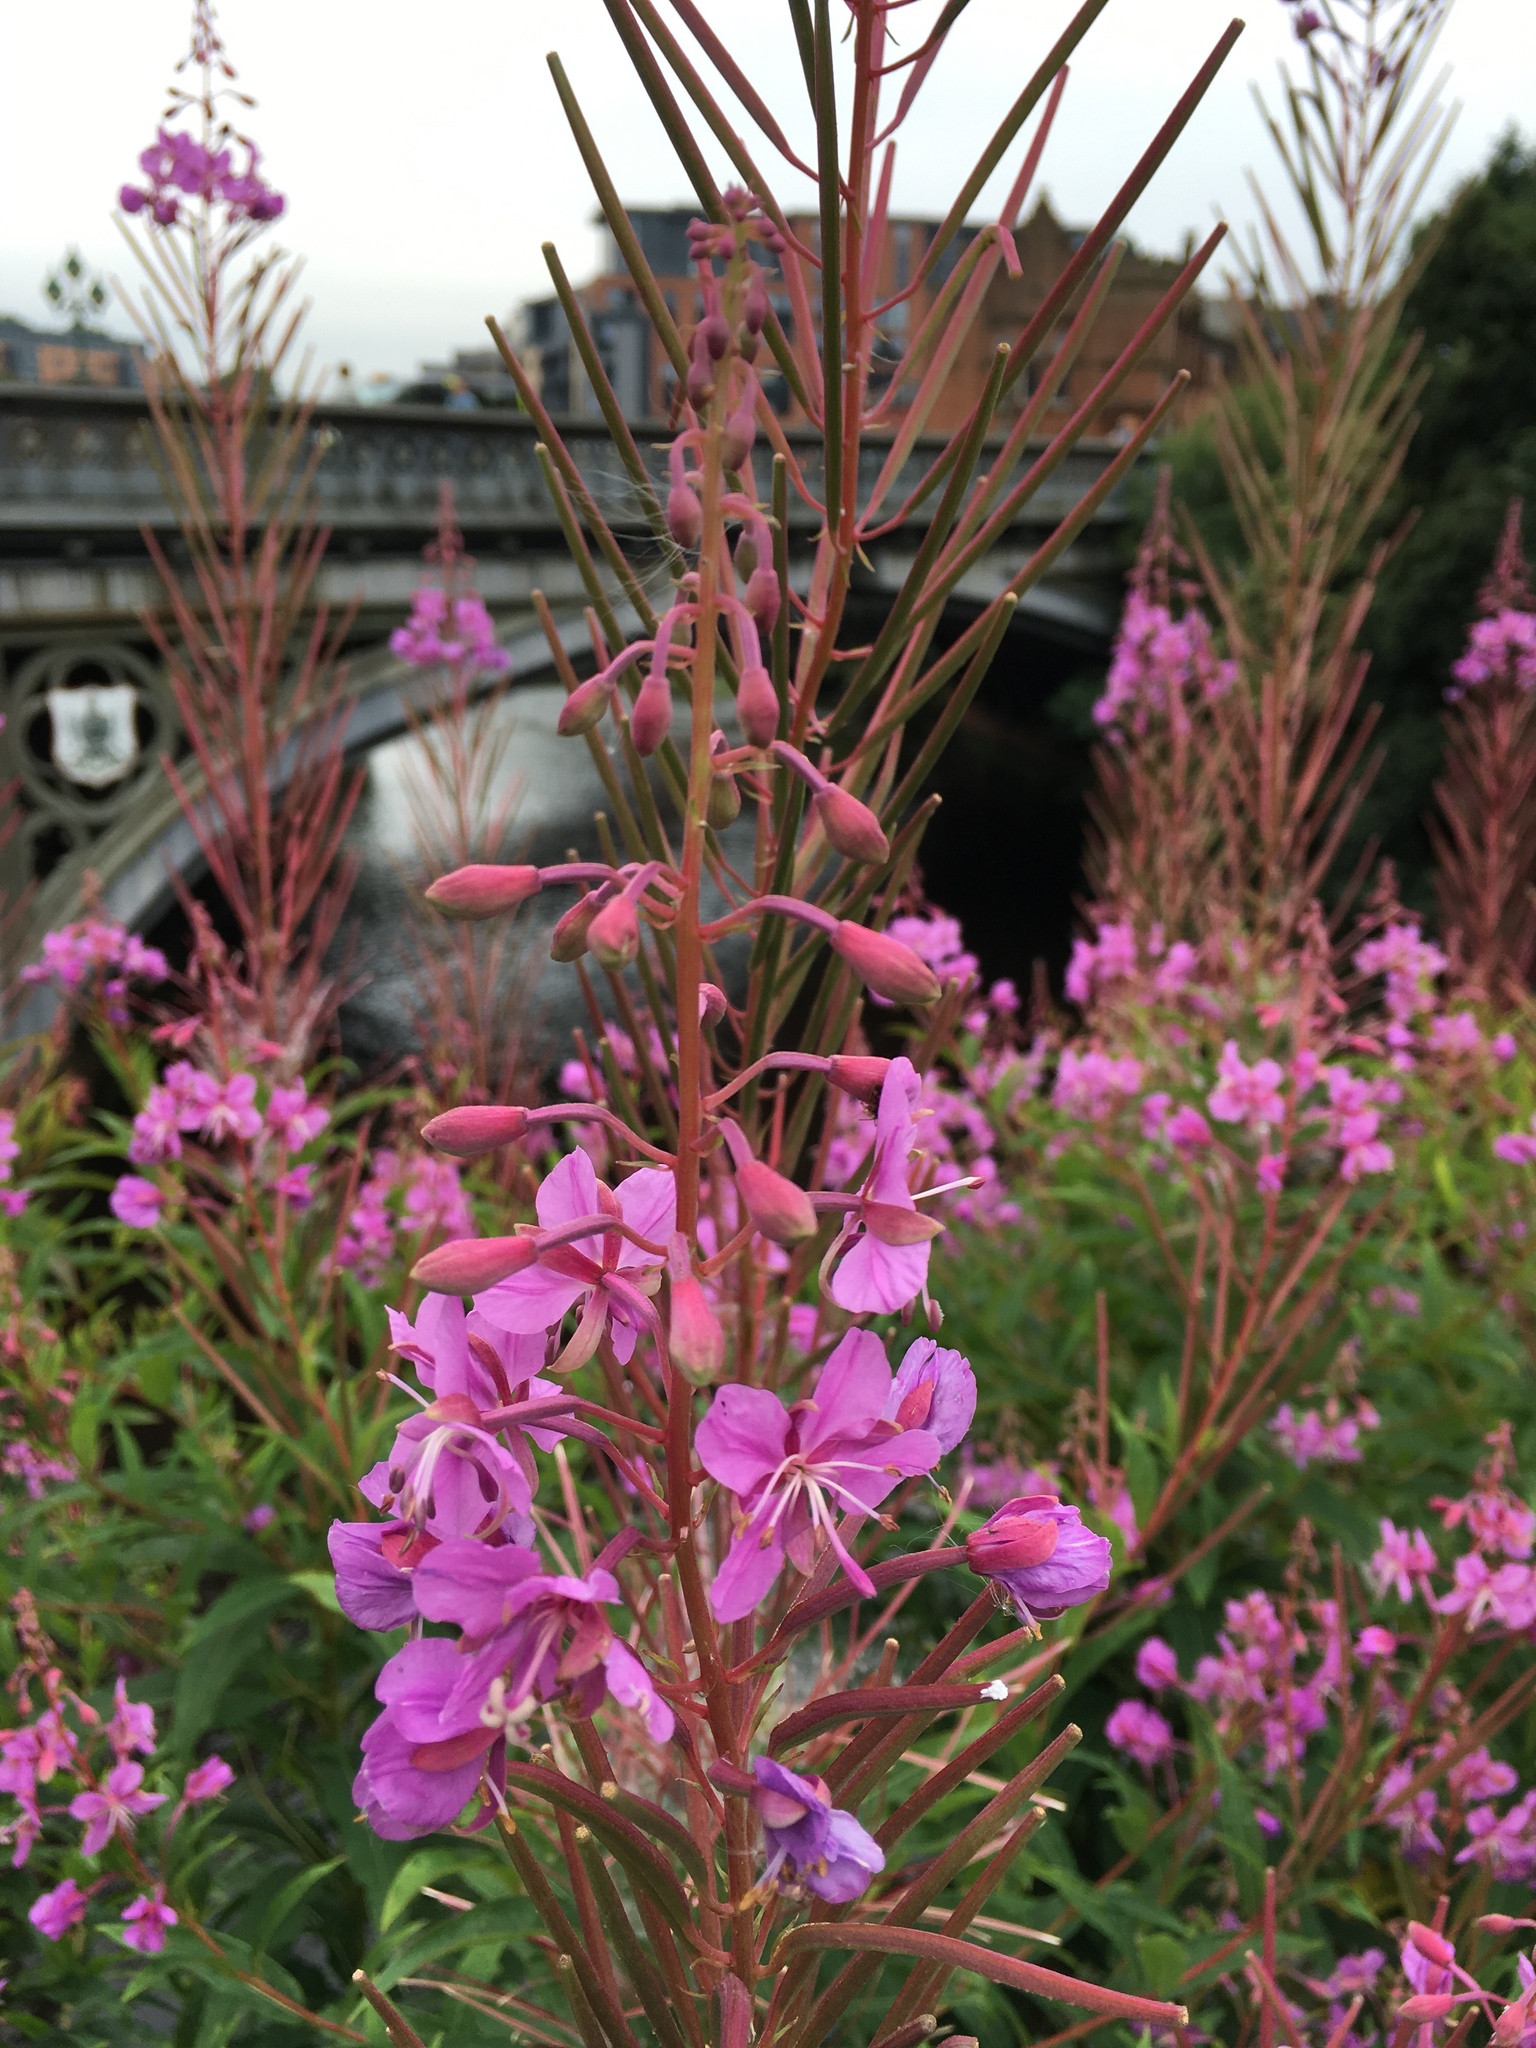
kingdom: Plantae
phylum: Tracheophyta
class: Magnoliopsida
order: Myrtales
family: Onagraceae
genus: Chamaenerion
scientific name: Chamaenerion angustifolium
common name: Fireweed
